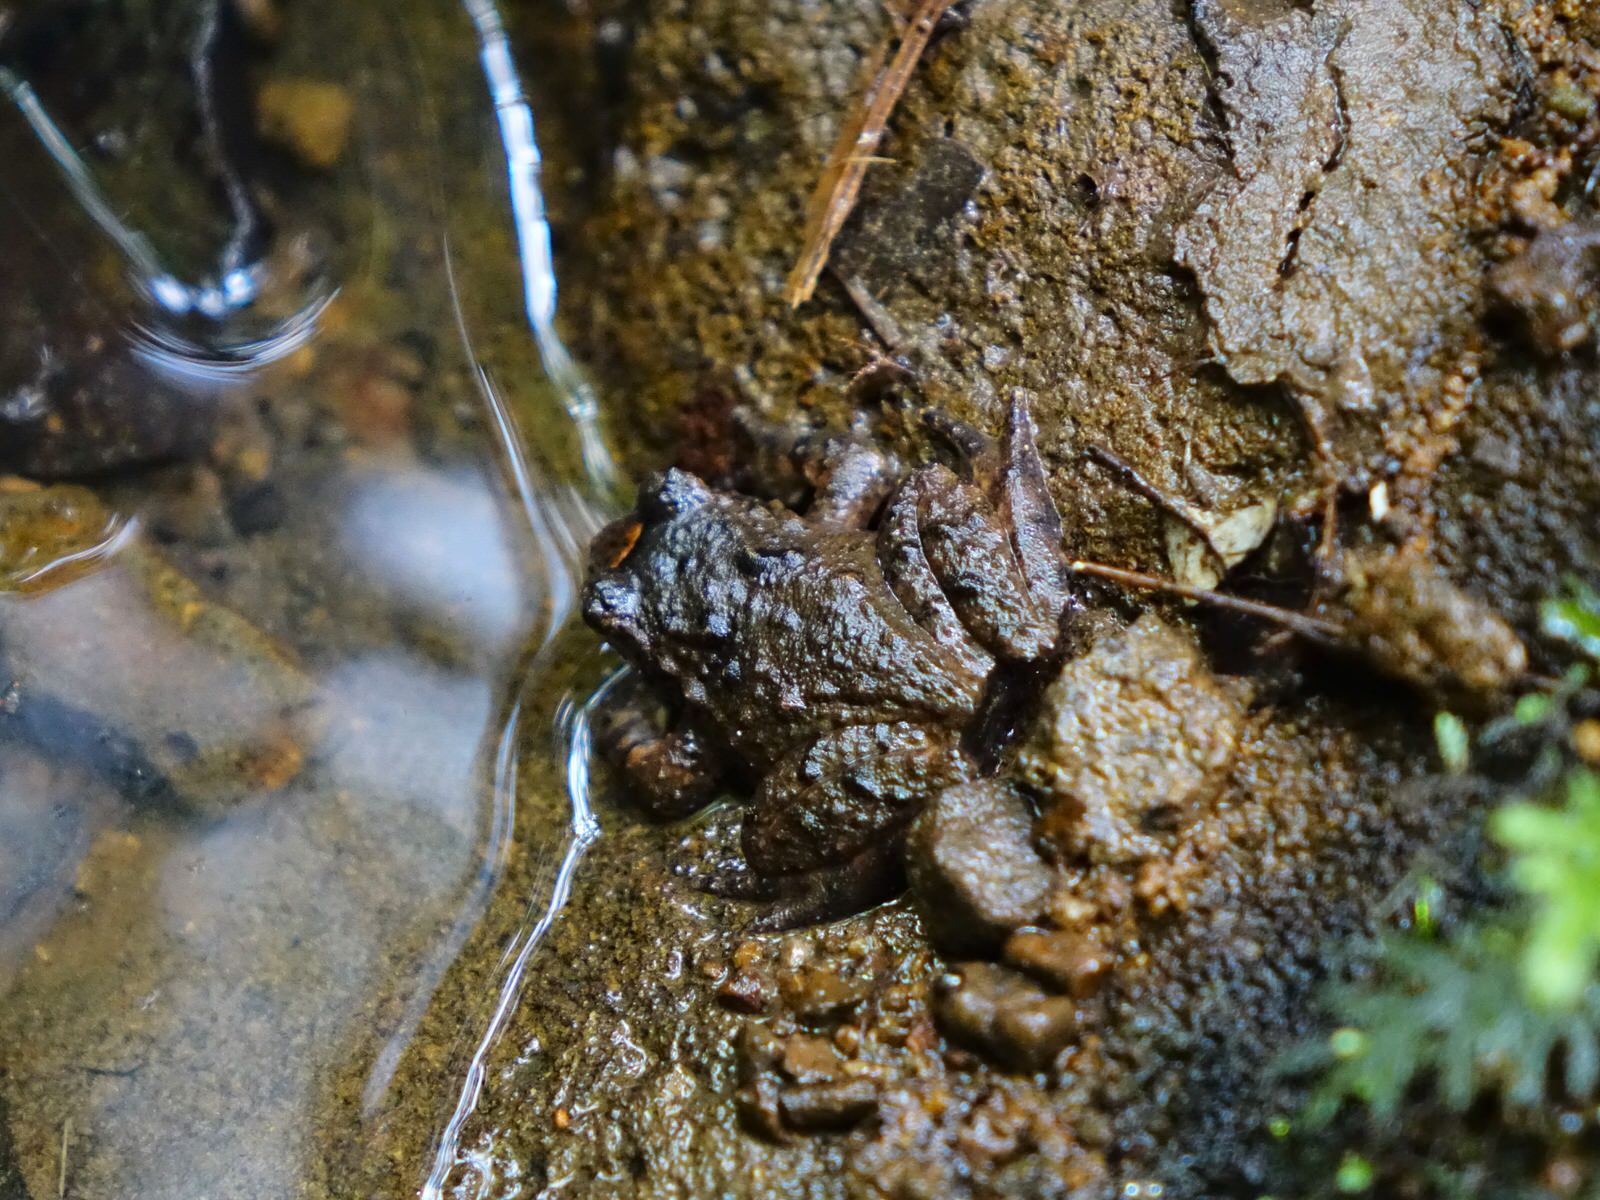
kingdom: Animalia
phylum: Chordata
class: Amphibia
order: Anura
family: Leiopelmatidae
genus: Leiopelma
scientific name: Leiopelma hochstetteri
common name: Hochstetters new zealand frog
